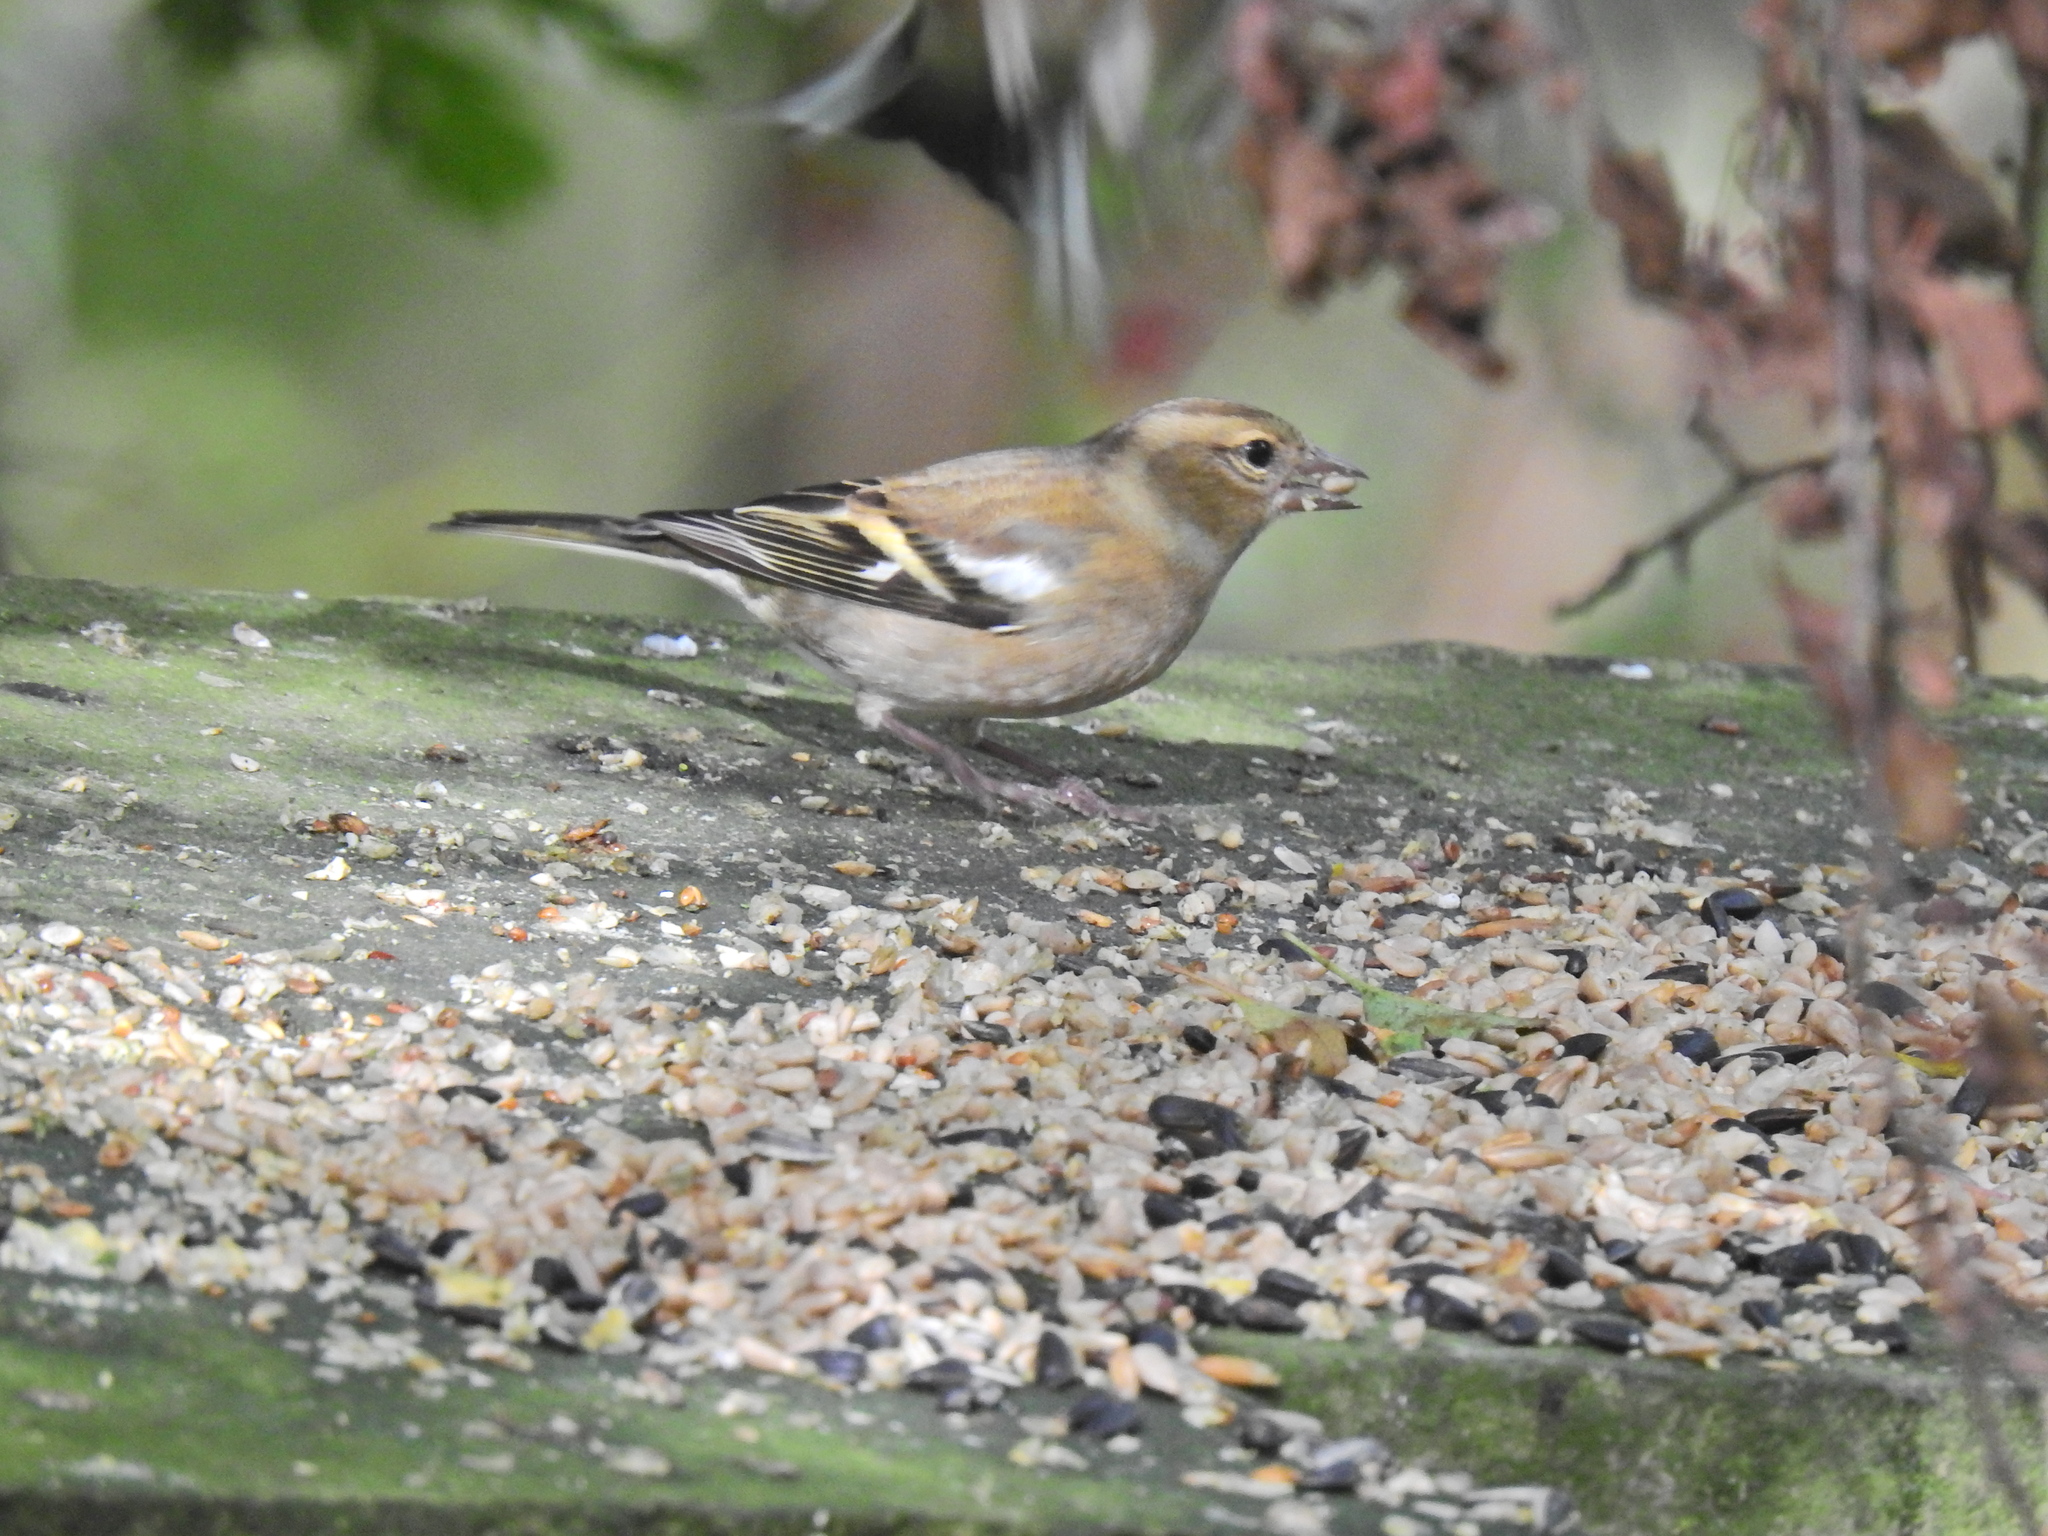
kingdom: Animalia
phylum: Chordata
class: Aves
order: Passeriformes
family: Fringillidae
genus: Fringilla
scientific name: Fringilla coelebs
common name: Common chaffinch
